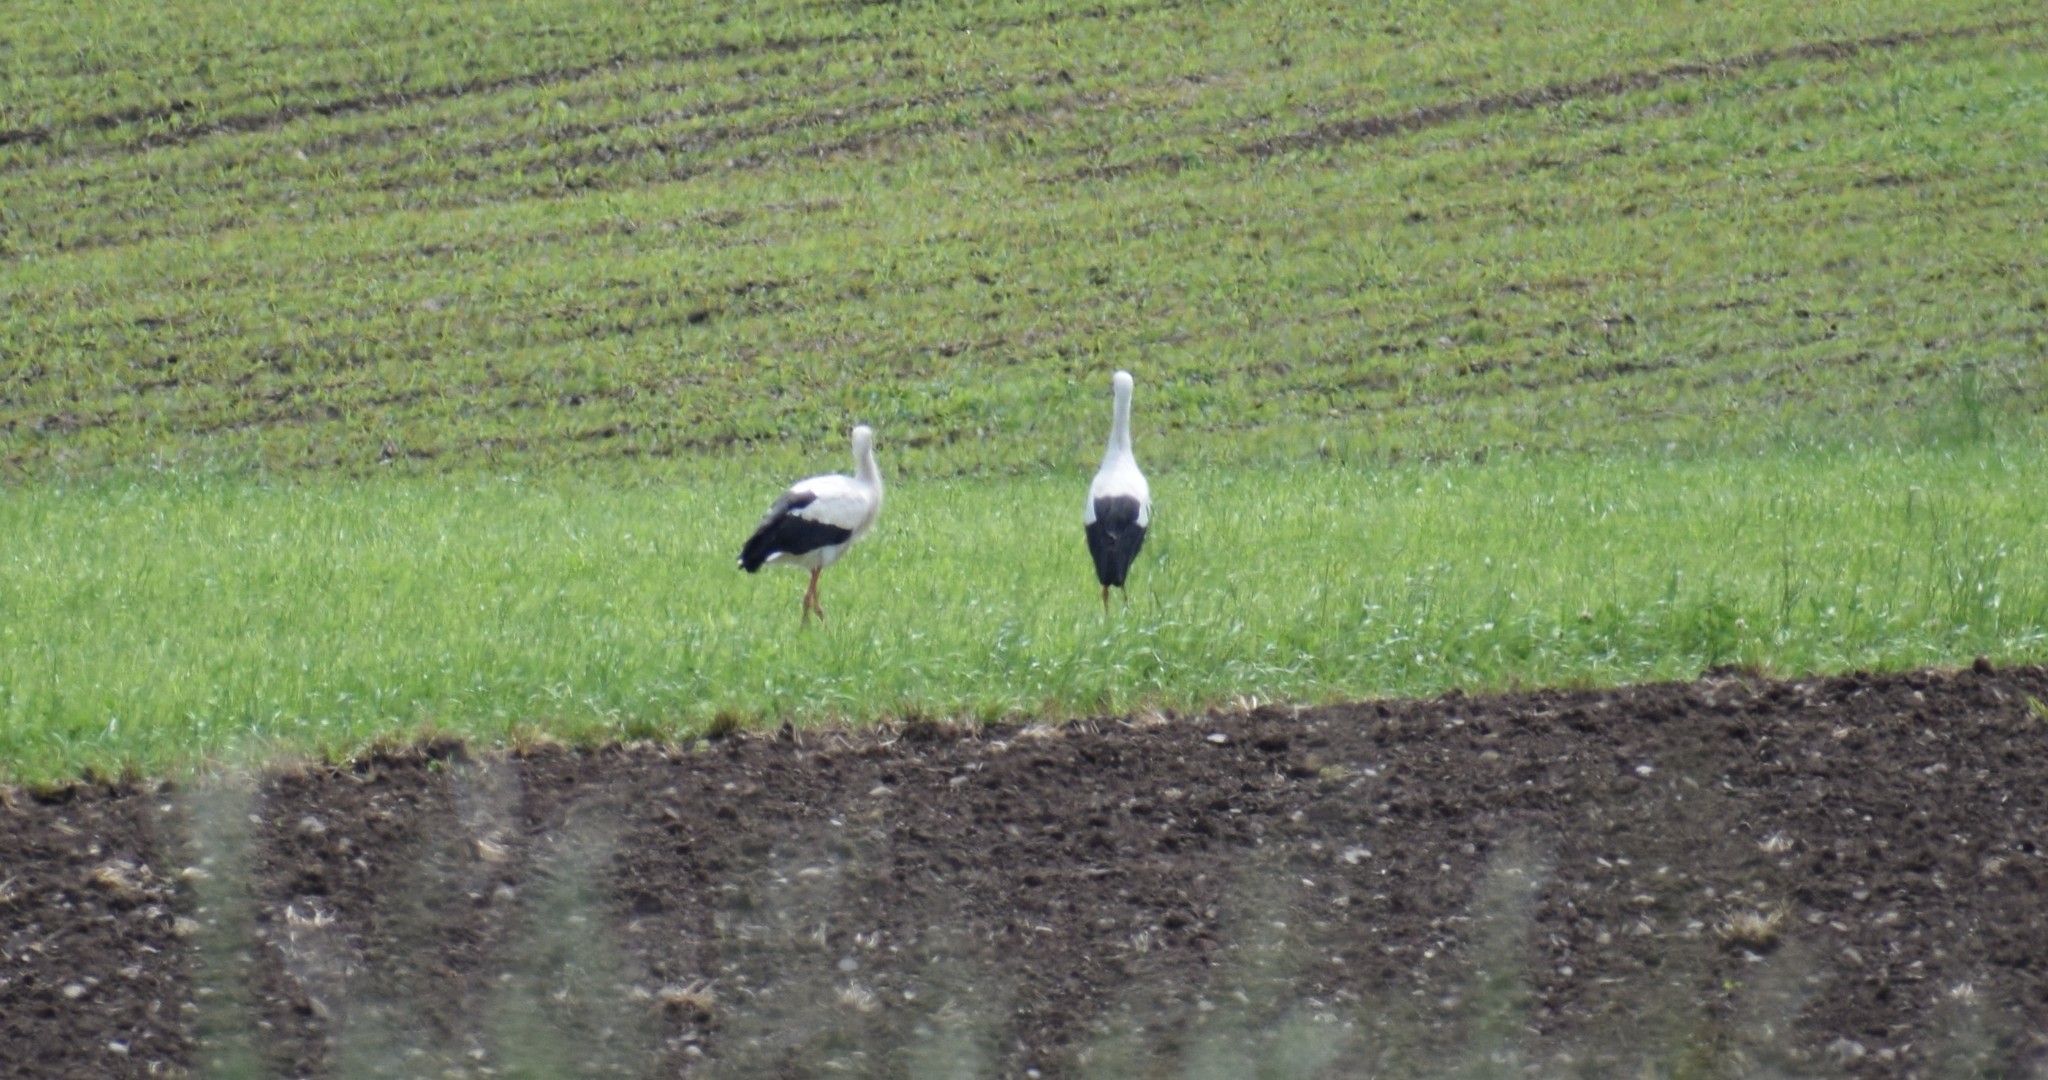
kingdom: Animalia
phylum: Chordata
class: Aves
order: Ciconiiformes
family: Ciconiidae
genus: Ciconia
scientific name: Ciconia ciconia
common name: White stork
